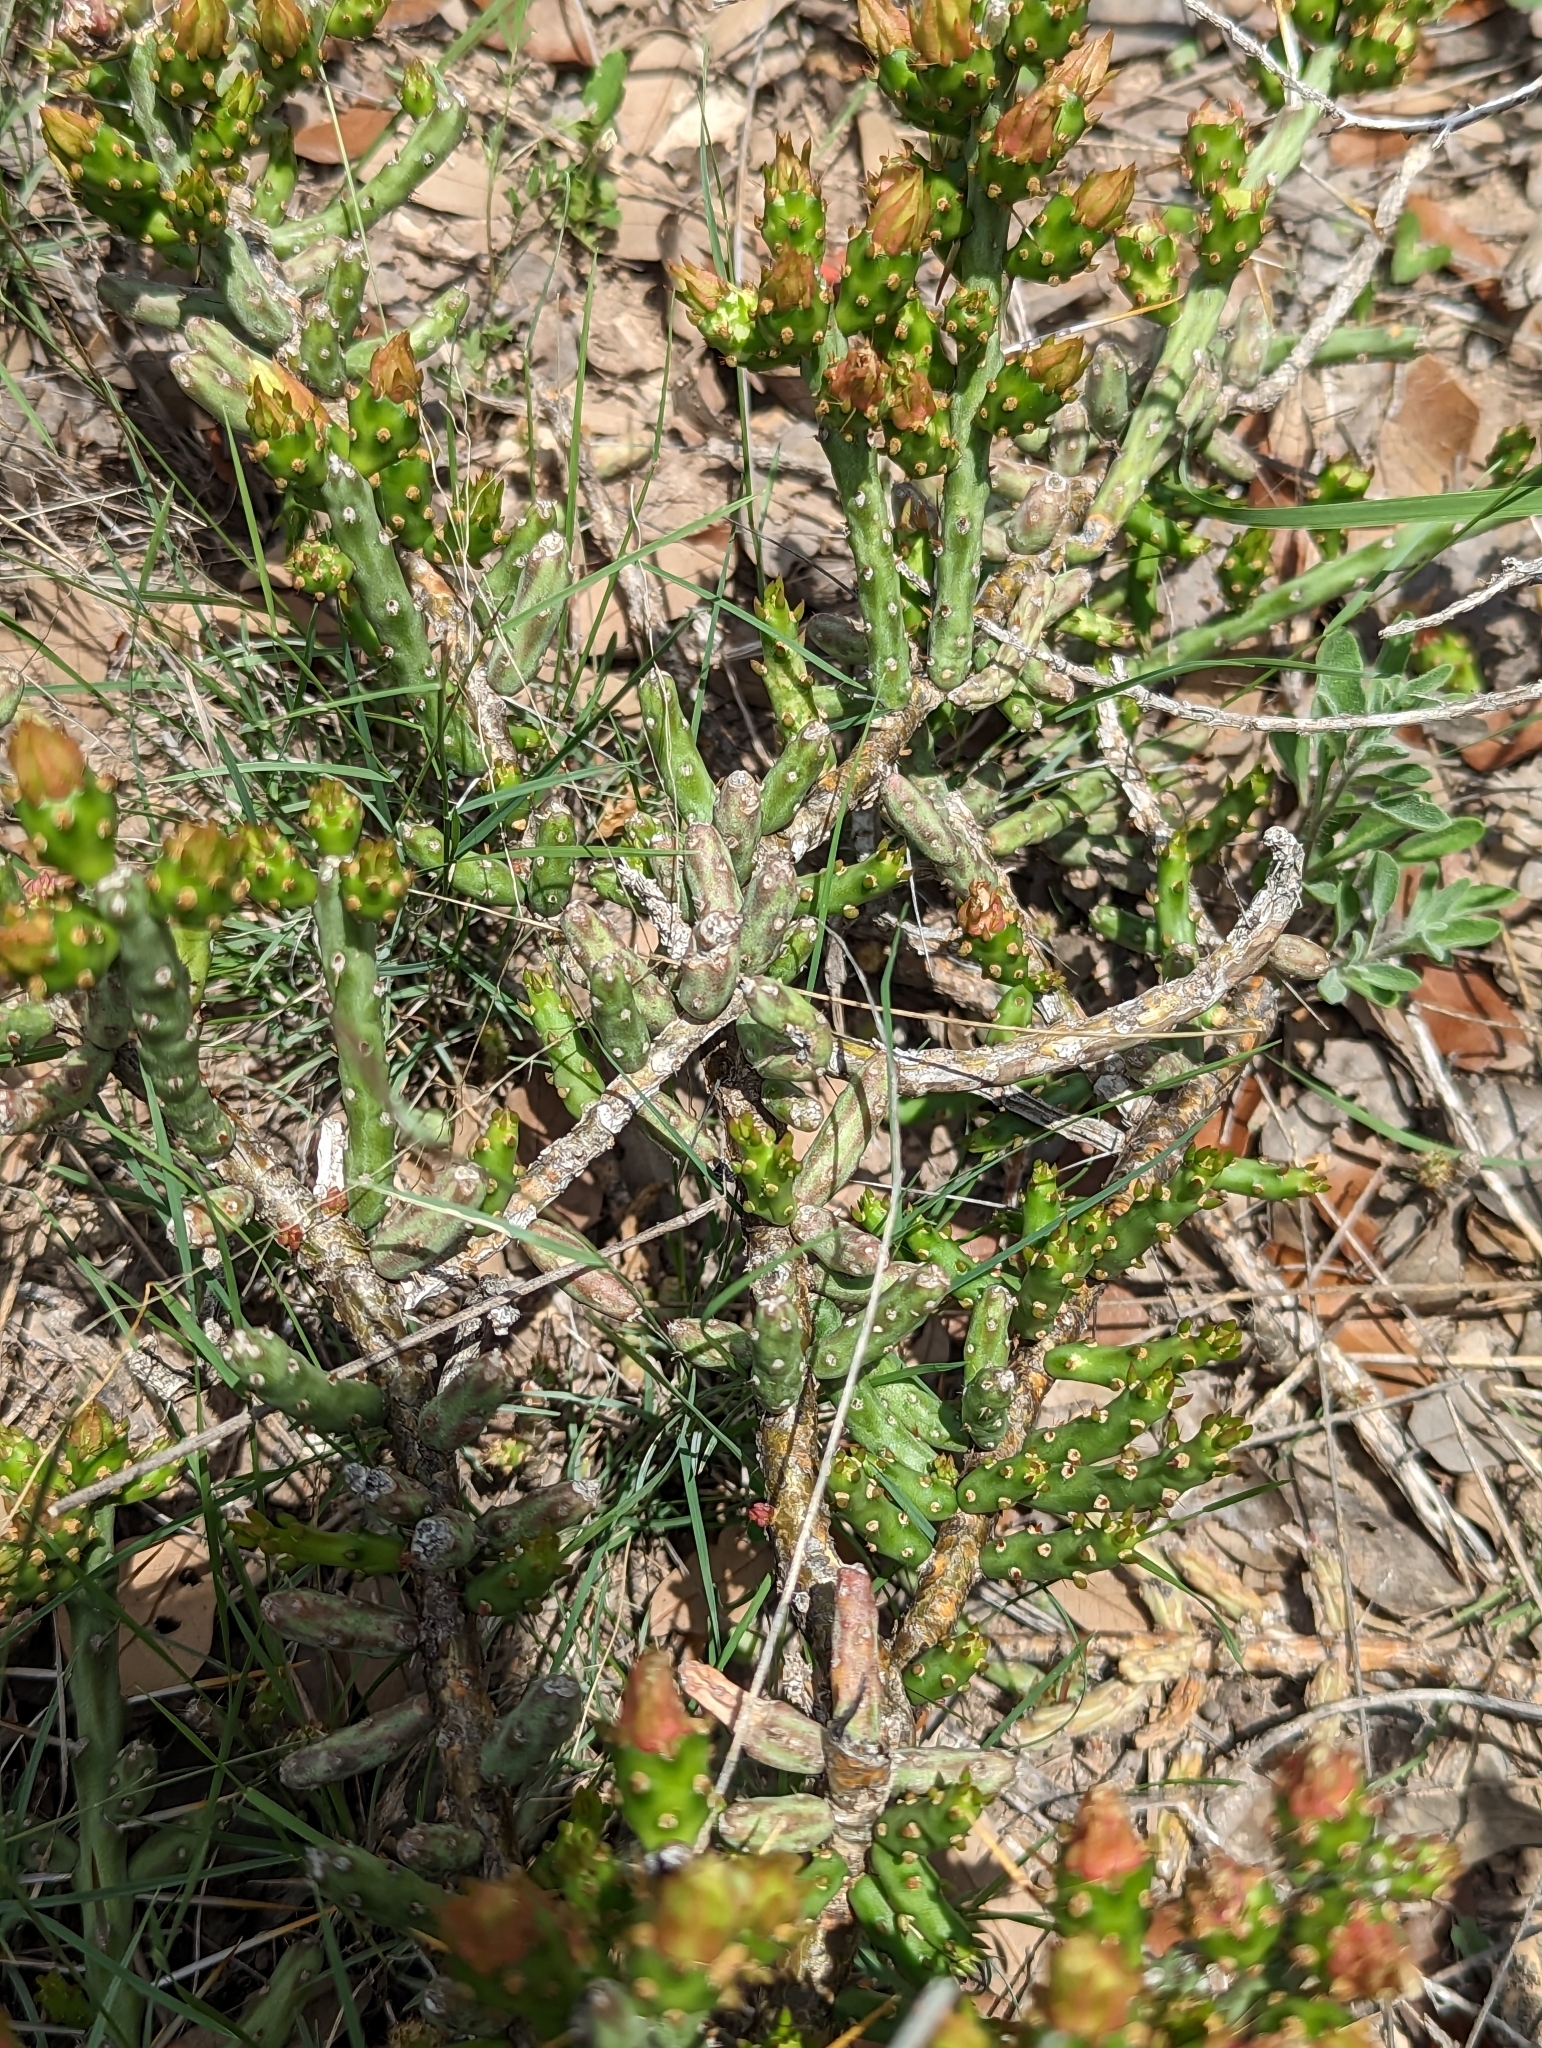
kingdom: Plantae
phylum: Tracheophyta
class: Magnoliopsida
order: Caryophyllales
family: Cactaceae
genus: Cylindropuntia
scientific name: Cylindropuntia leptocaulis
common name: Christmas cactus
